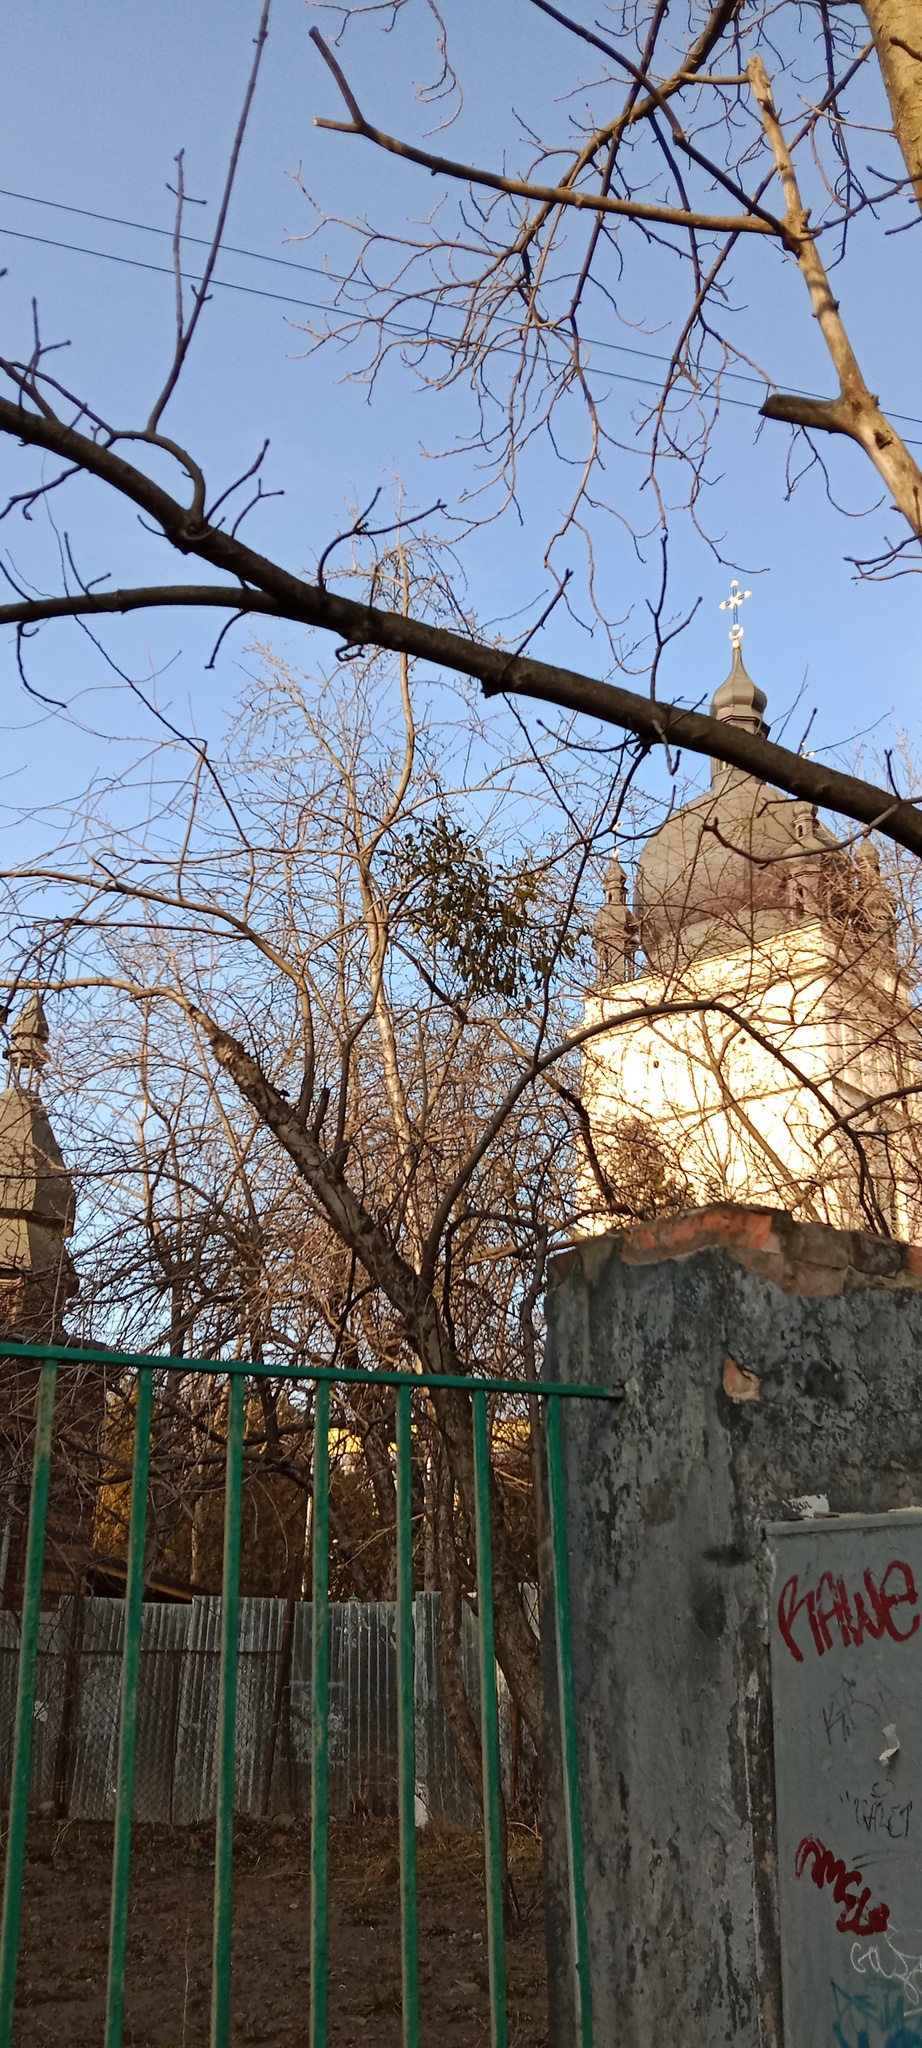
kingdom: Plantae
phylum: Tracheophyta
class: Magnoliopsida
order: Santalales
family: Viscaceae
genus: Viscum
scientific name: Viscum album
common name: Mistletoe
